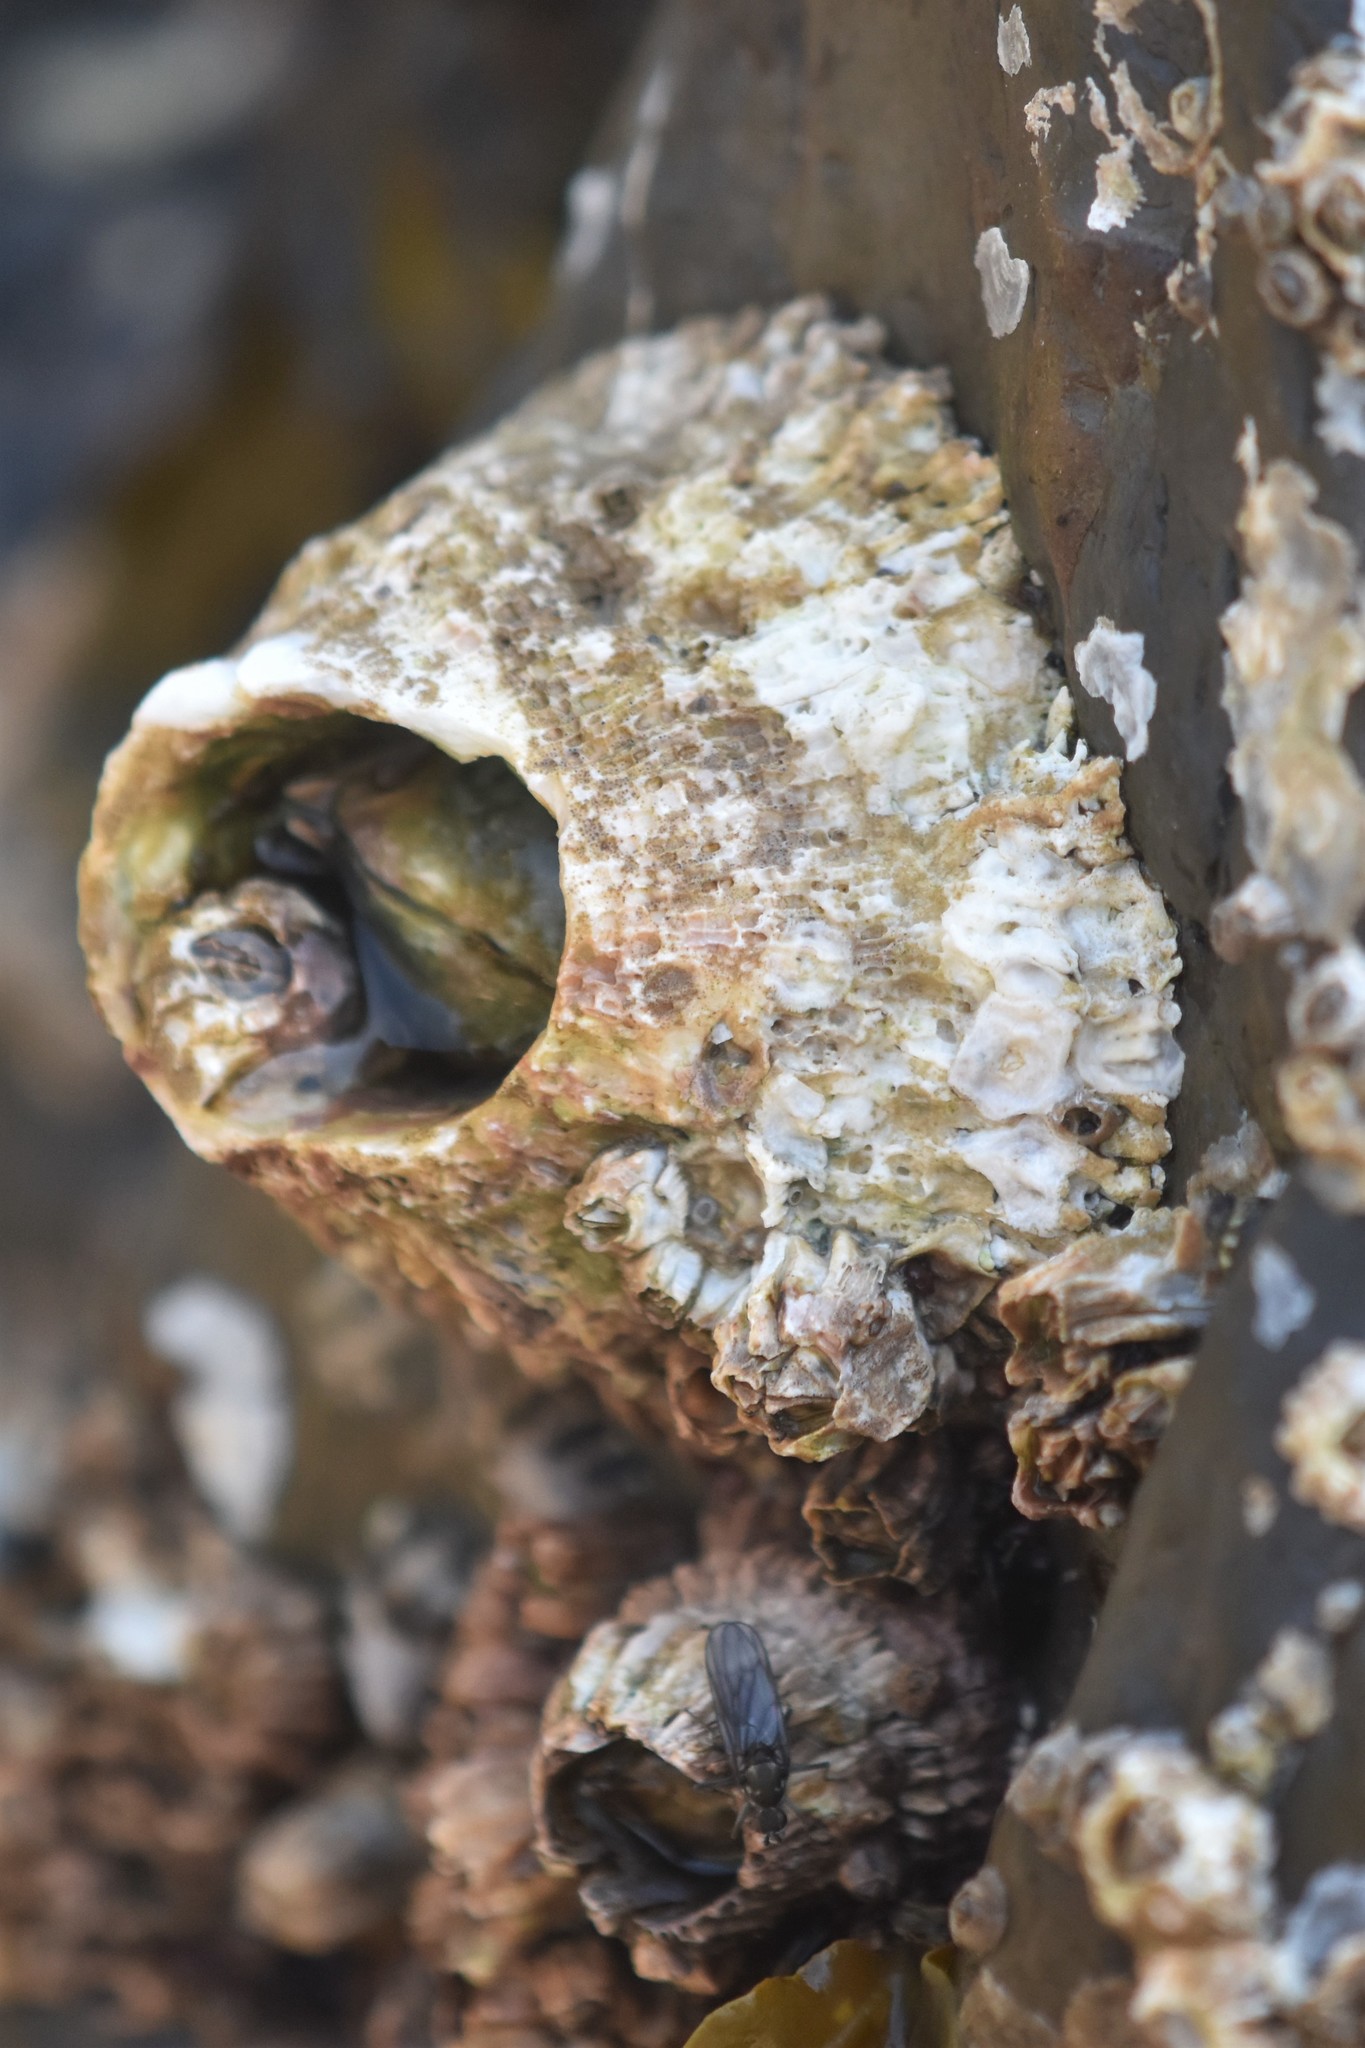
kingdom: Animalia
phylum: Arthropoda
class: Maxillopoda
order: Sessilia
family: Archaeobalanidae
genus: Semibalanus
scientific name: Semibalanus cariosus
